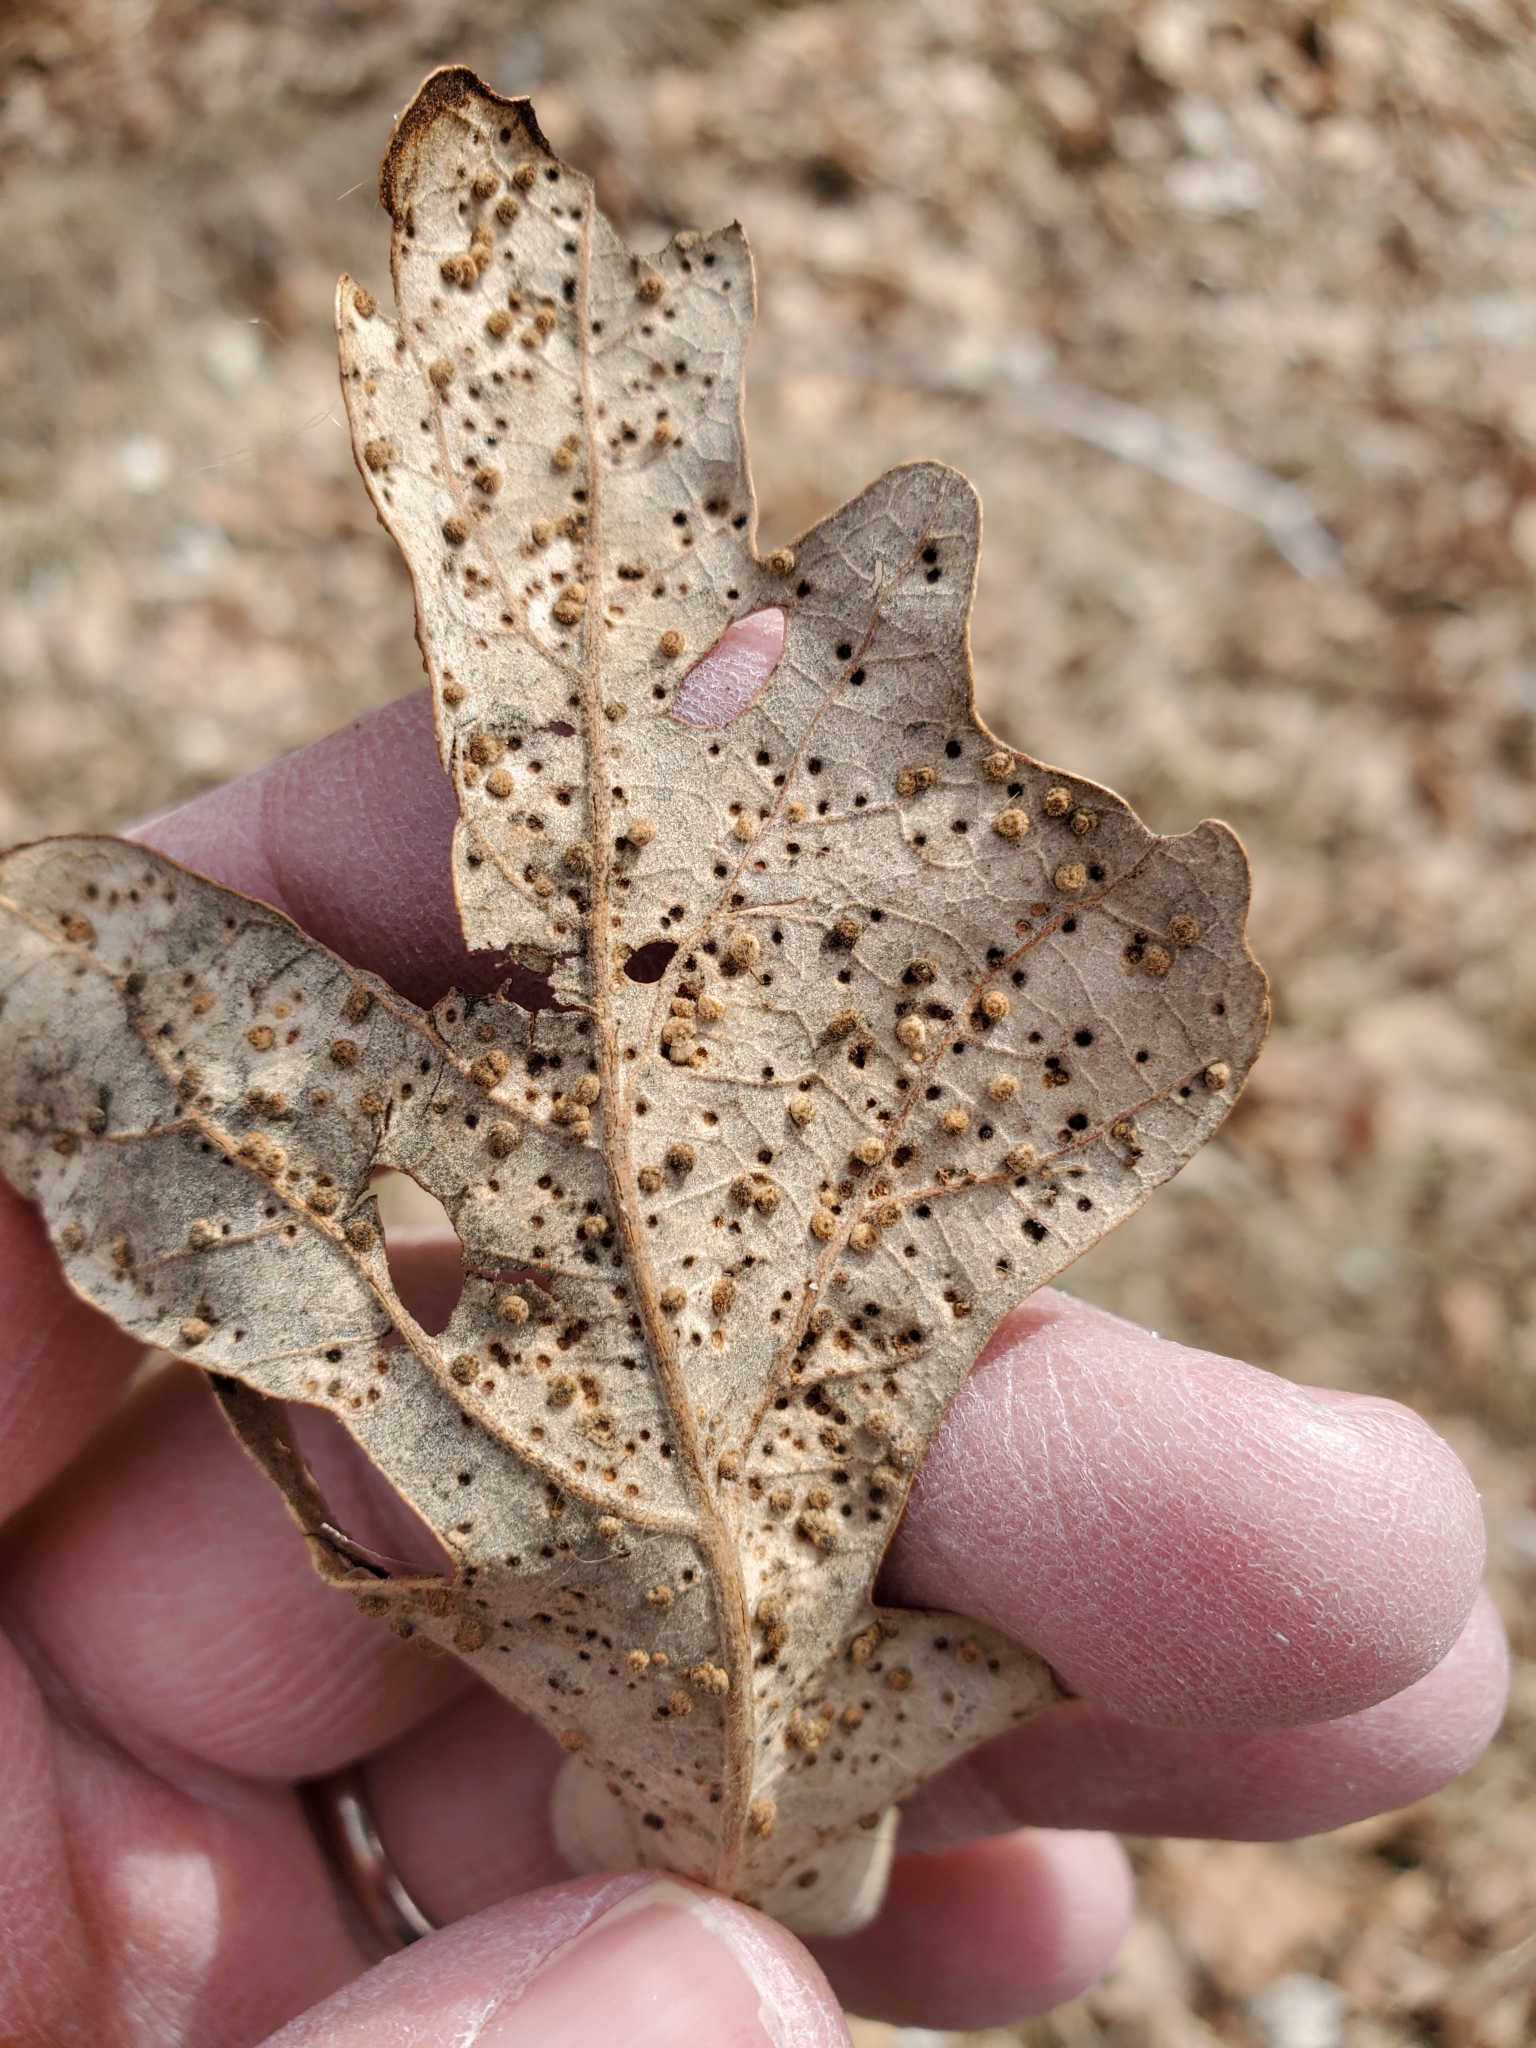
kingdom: Animalia
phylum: Arthropoda
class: Insecta
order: Hymenoptera
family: Cynipidae
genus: Neuroterus
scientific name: Neuroterus saltarius
